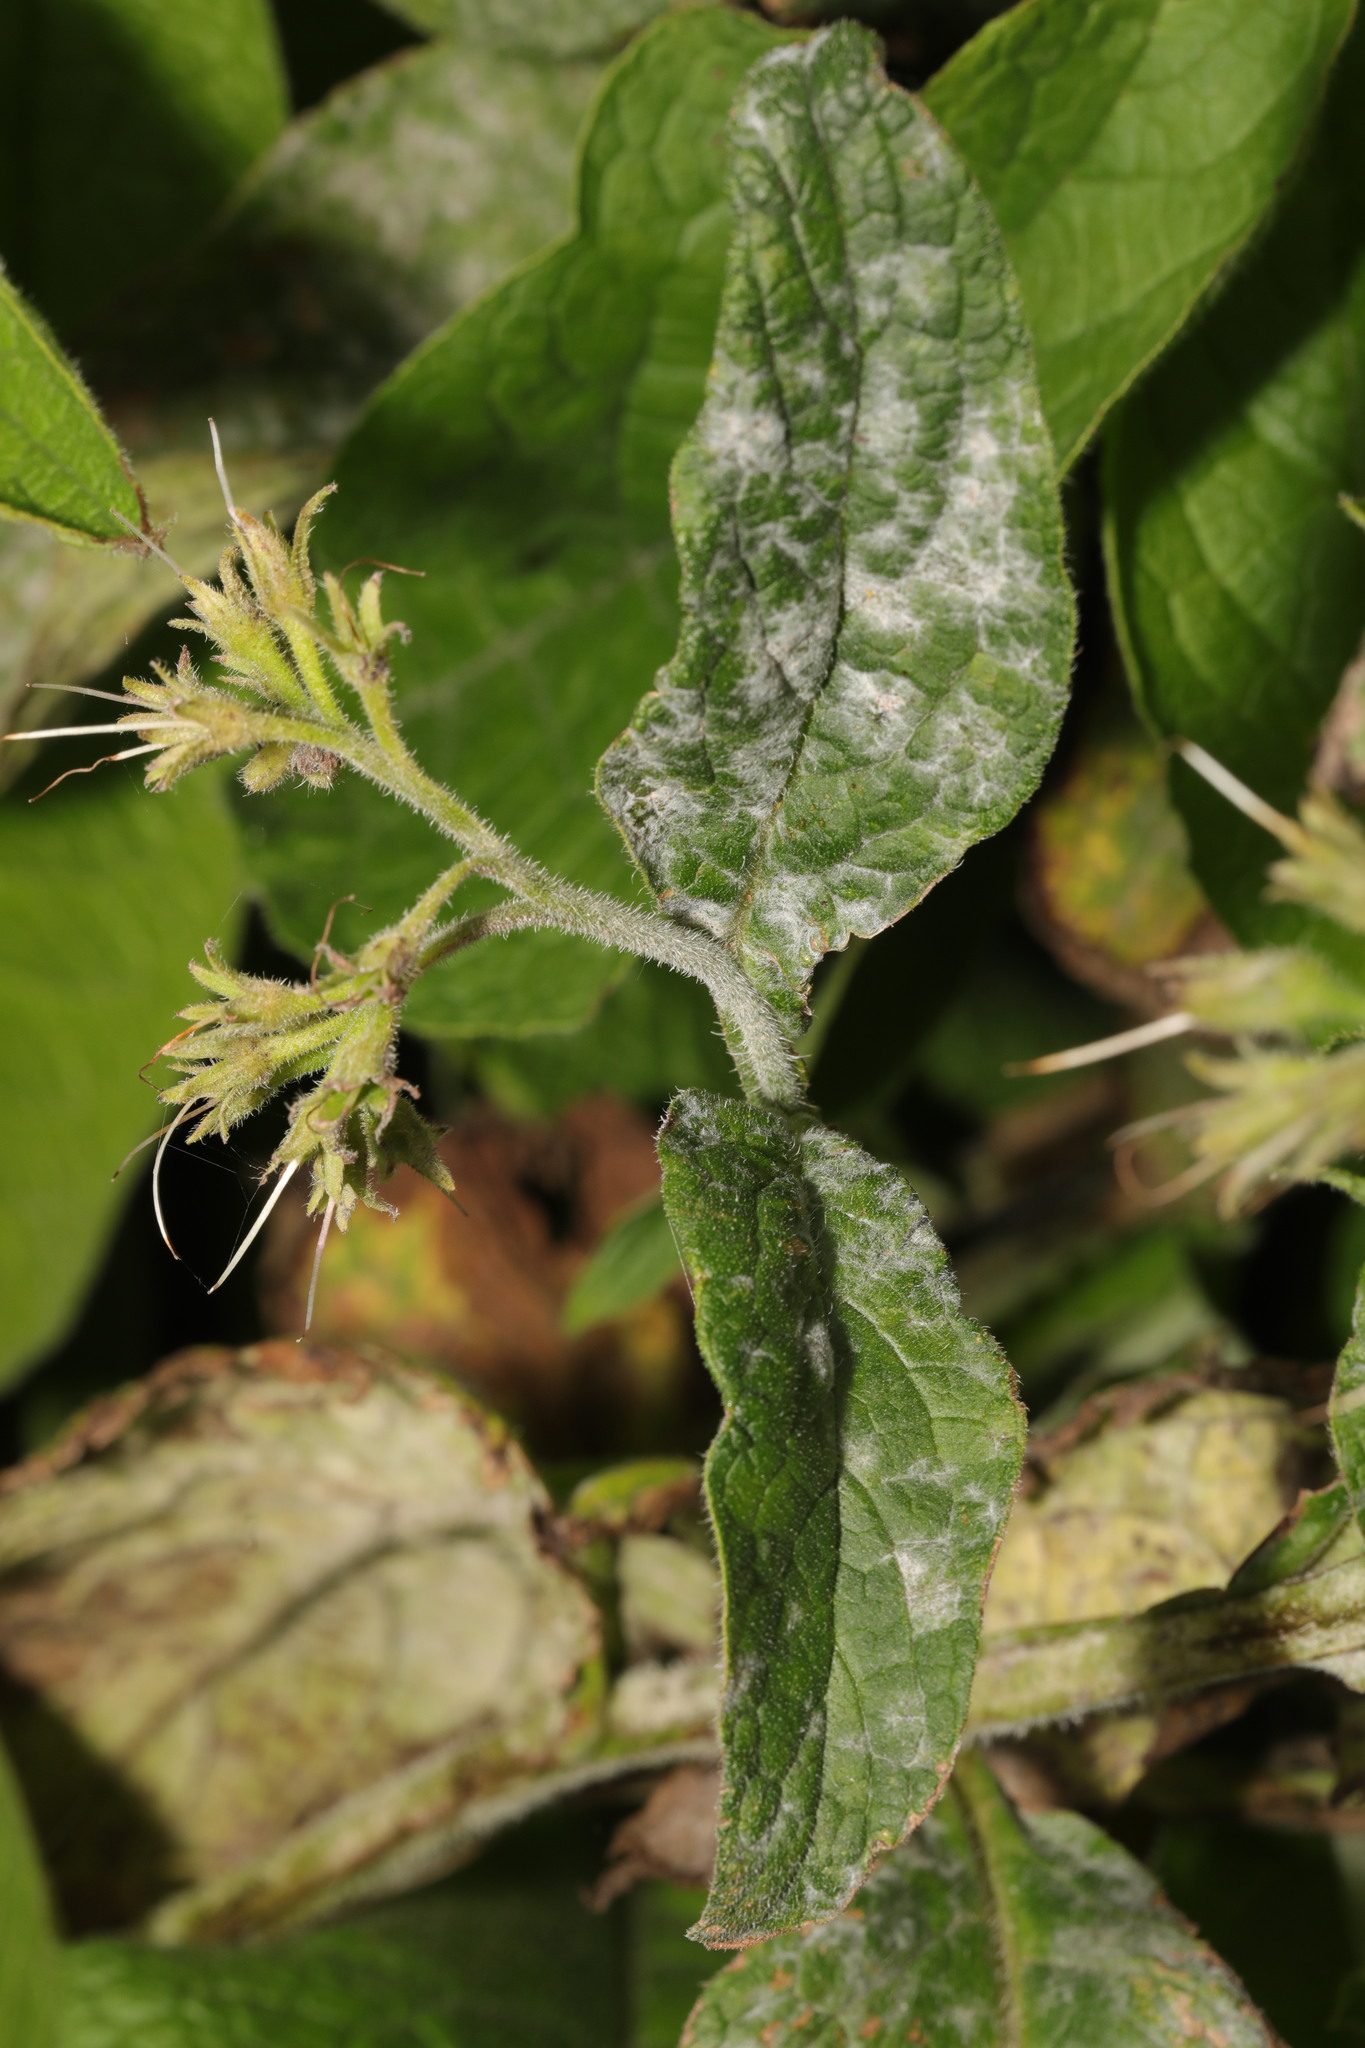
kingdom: Fungi
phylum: Ascomycota
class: Leotiomycetes
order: Helotiales
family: Erysiphaceae
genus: Golovinomyces
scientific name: Golovinomyces asperifoliorum
